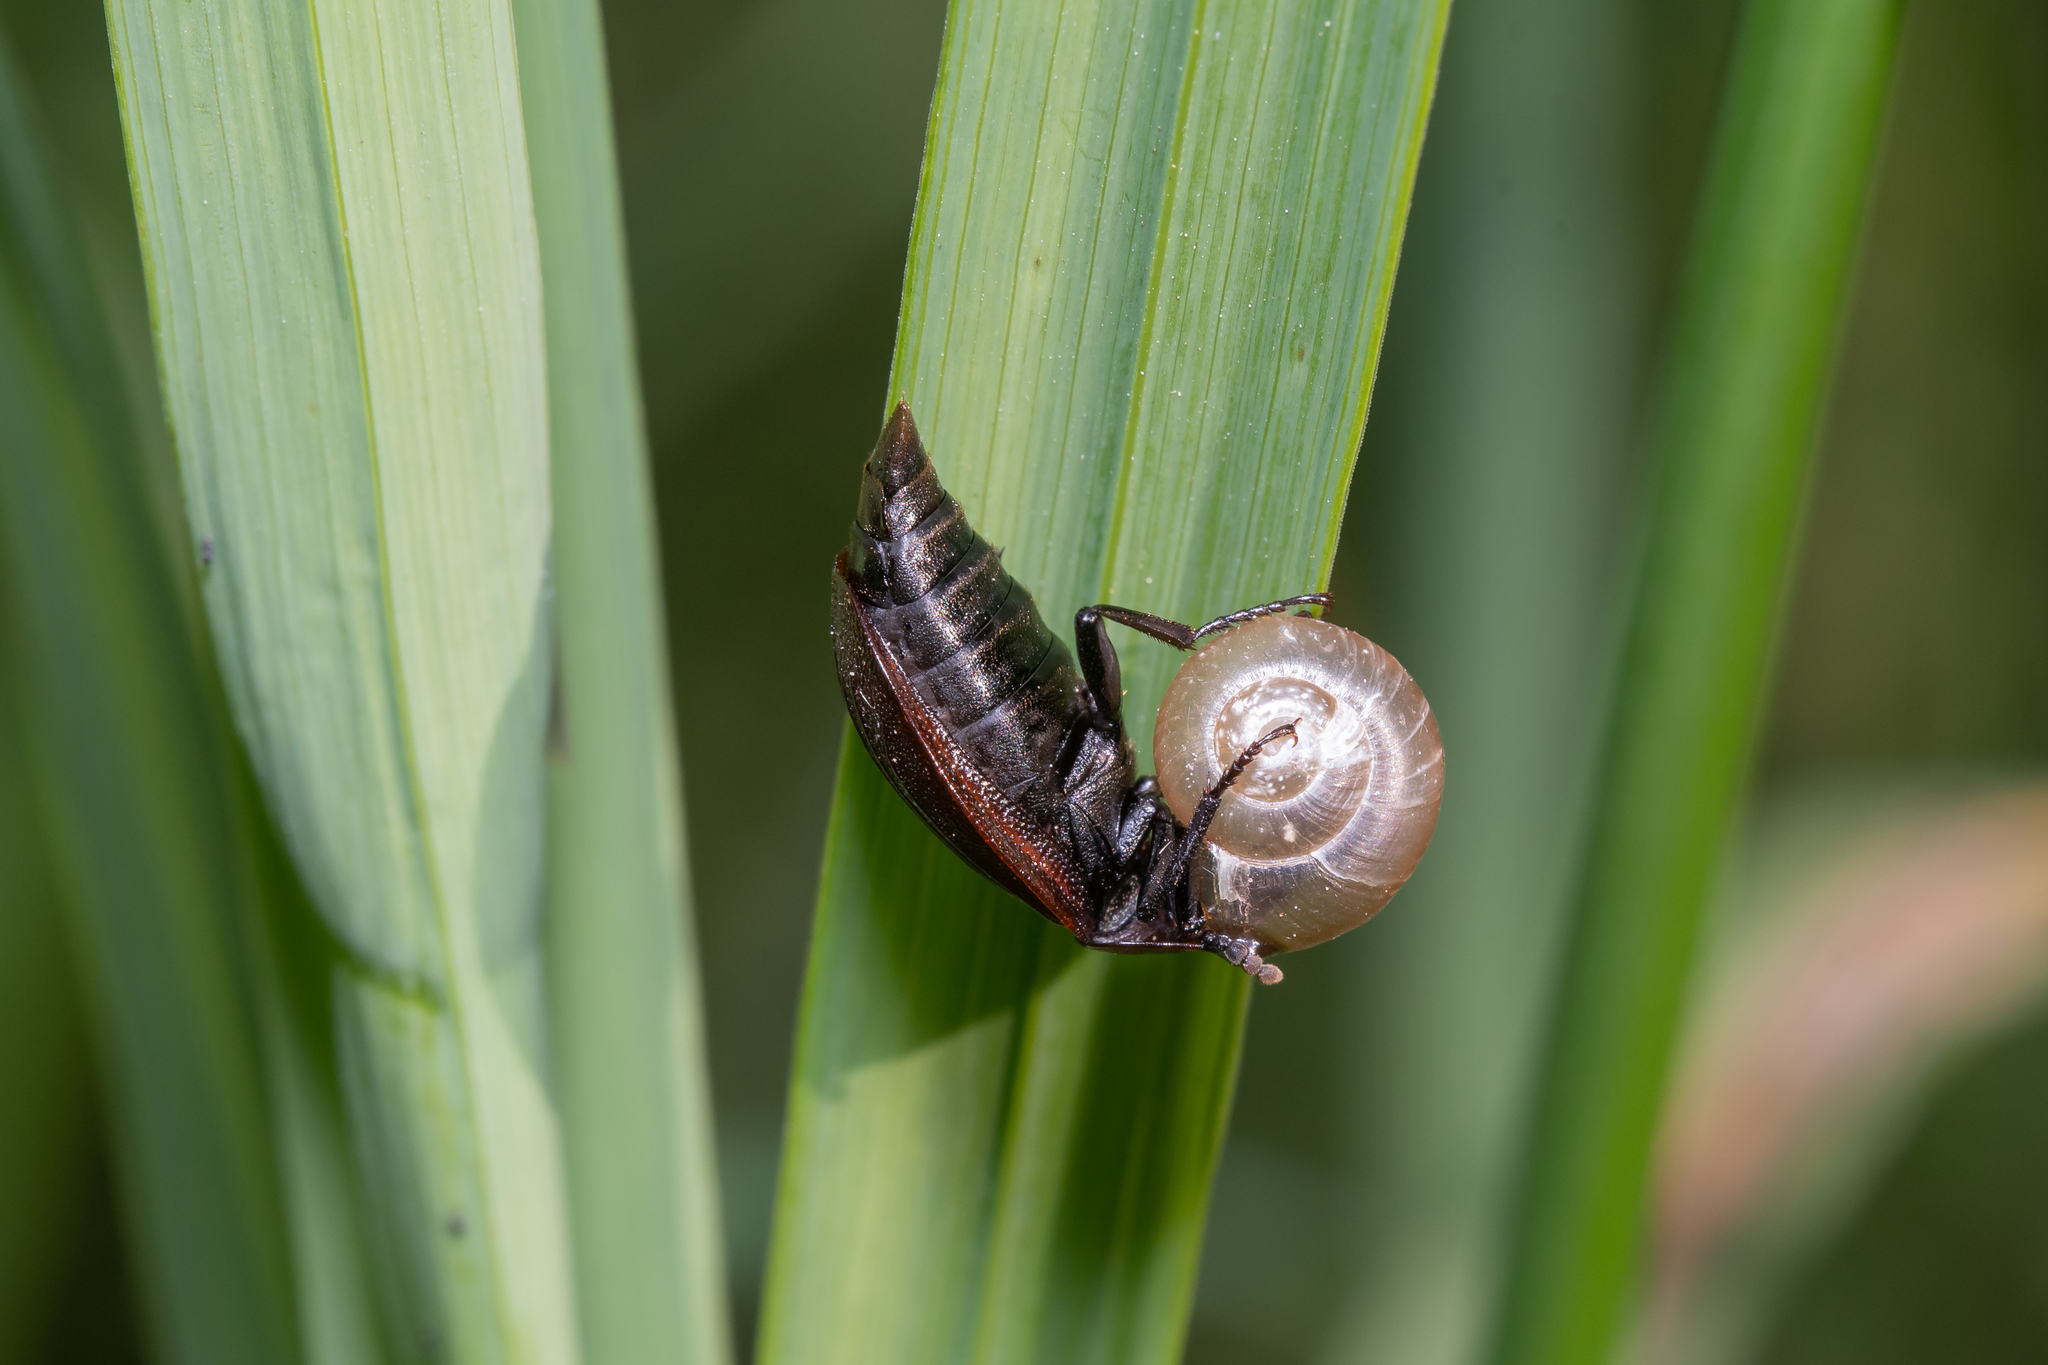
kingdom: Animalia
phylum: Arthropoda
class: Insecta
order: Coleoptera
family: Staphylinidae
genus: Silpha
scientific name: Silpha atrata
